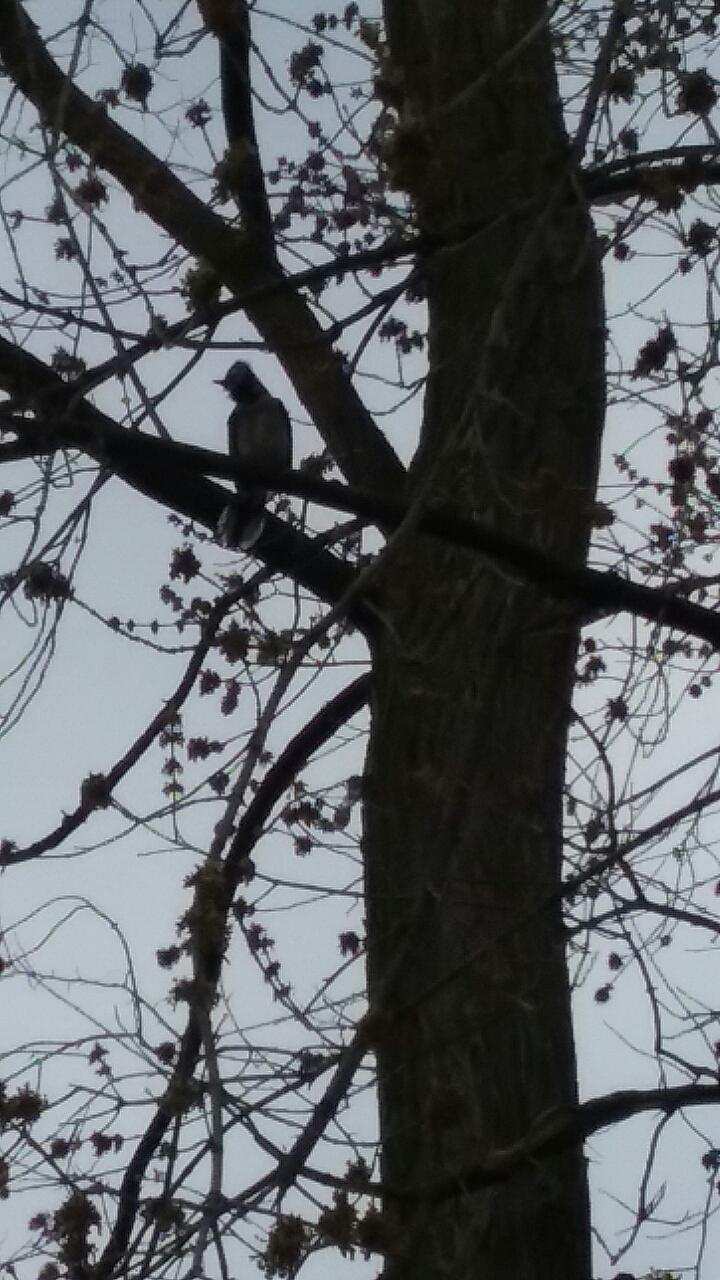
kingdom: Animalia
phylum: Chordata
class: Aves
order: Passeriformes
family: Corvidae
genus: Cyanocitta
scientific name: Cyanocitta cristata
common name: Blue jay
